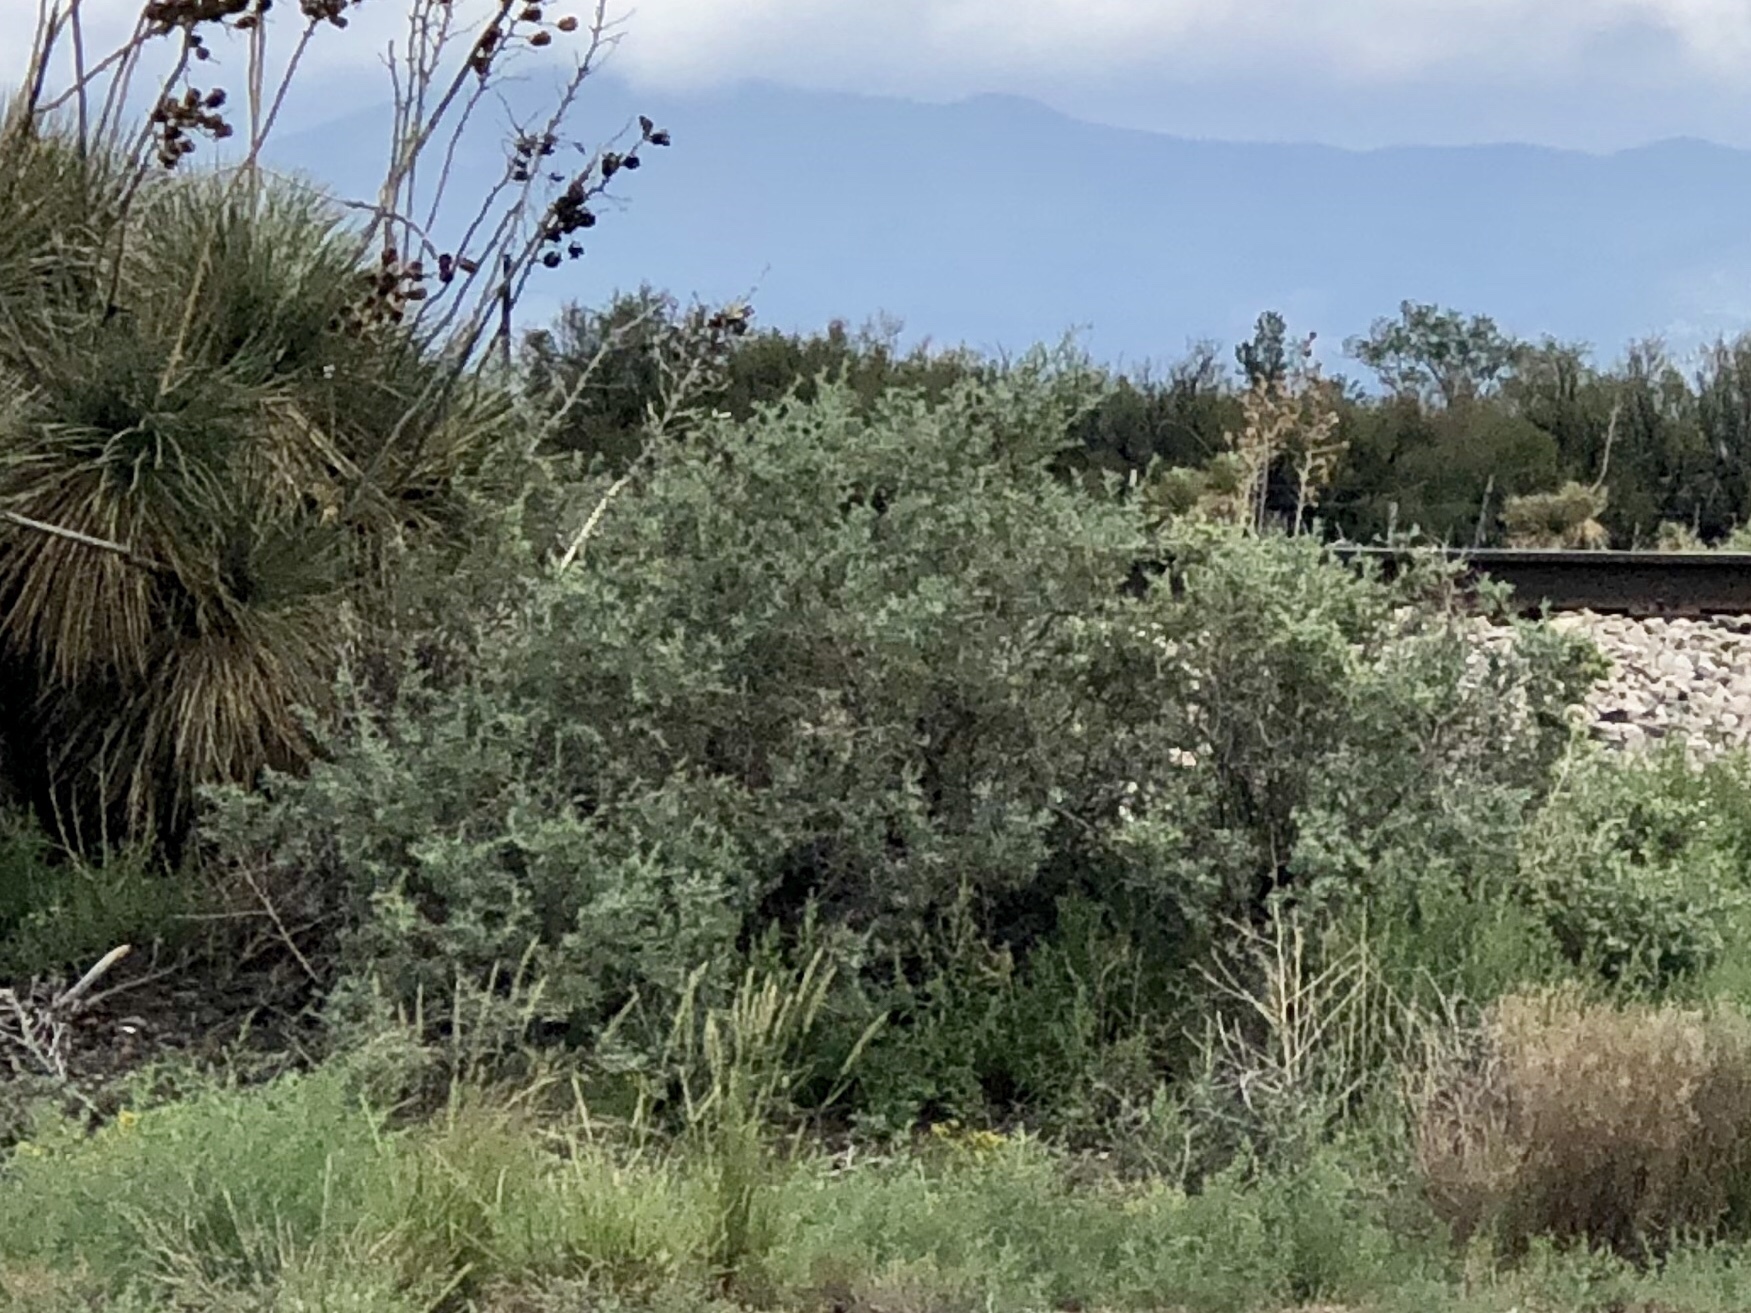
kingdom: Plantae
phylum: Tracheophyta
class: Magnoliopsida
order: Caryophyllales
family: Amaranthaceae
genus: Atriplex
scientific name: Atriplex canescens
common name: Four-wing saltbush
